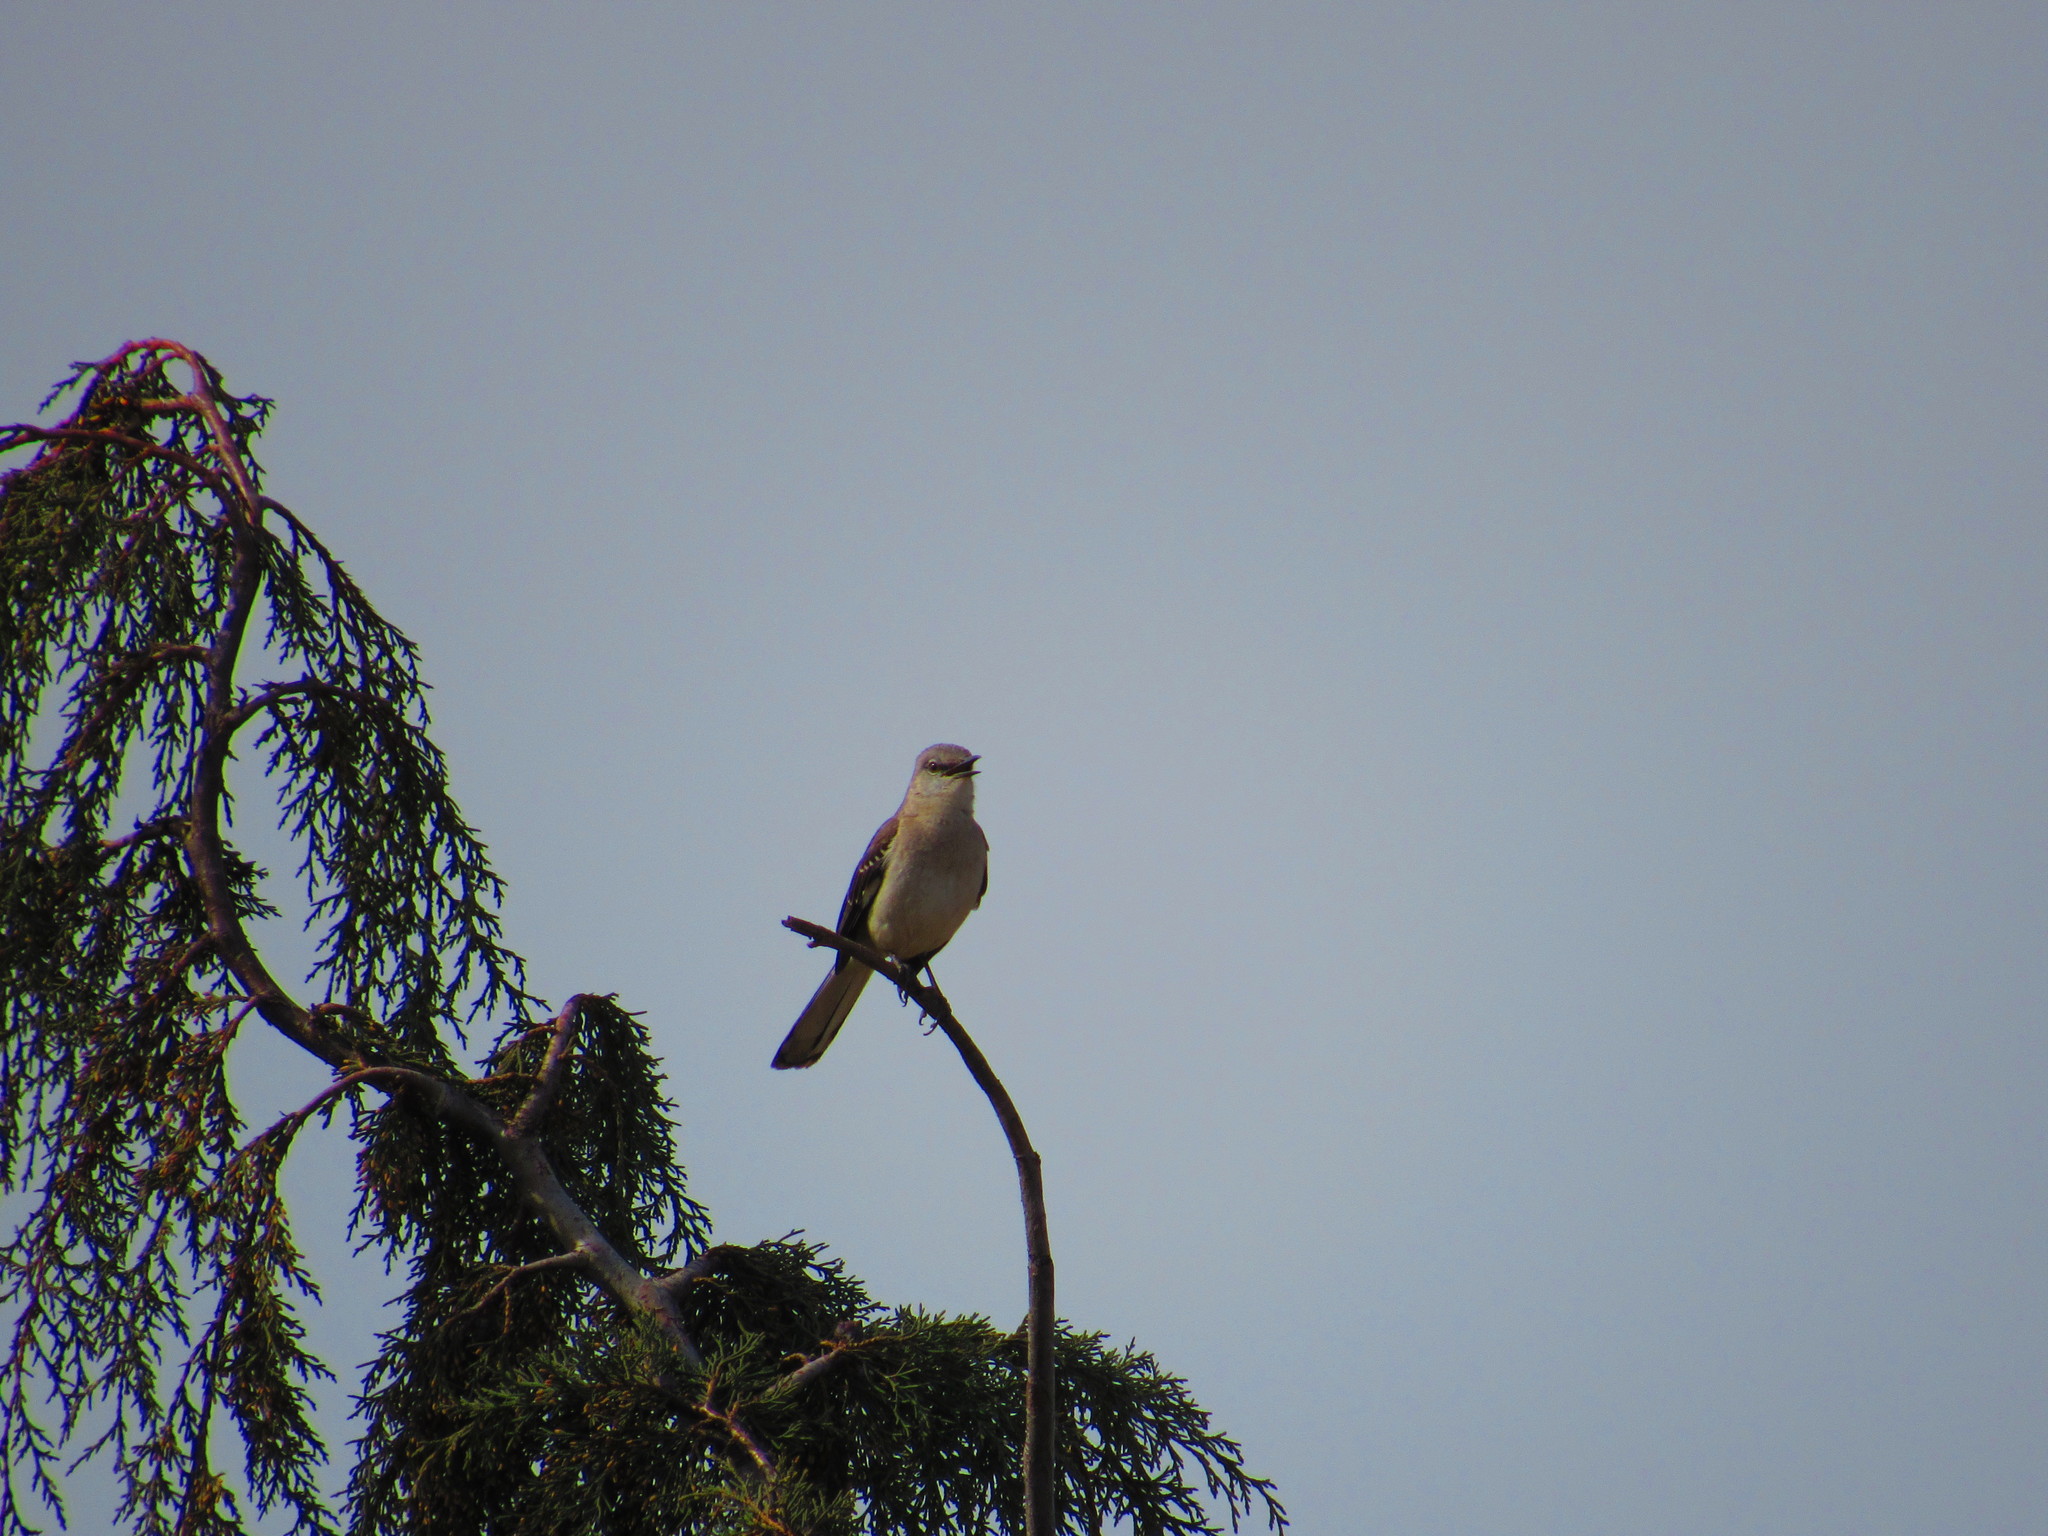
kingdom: Animalia
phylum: Chordata
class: Aves
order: Passeriformes
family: Mimidae
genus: Mimus
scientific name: Mimus polyglottos
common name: Northern mockingbird
